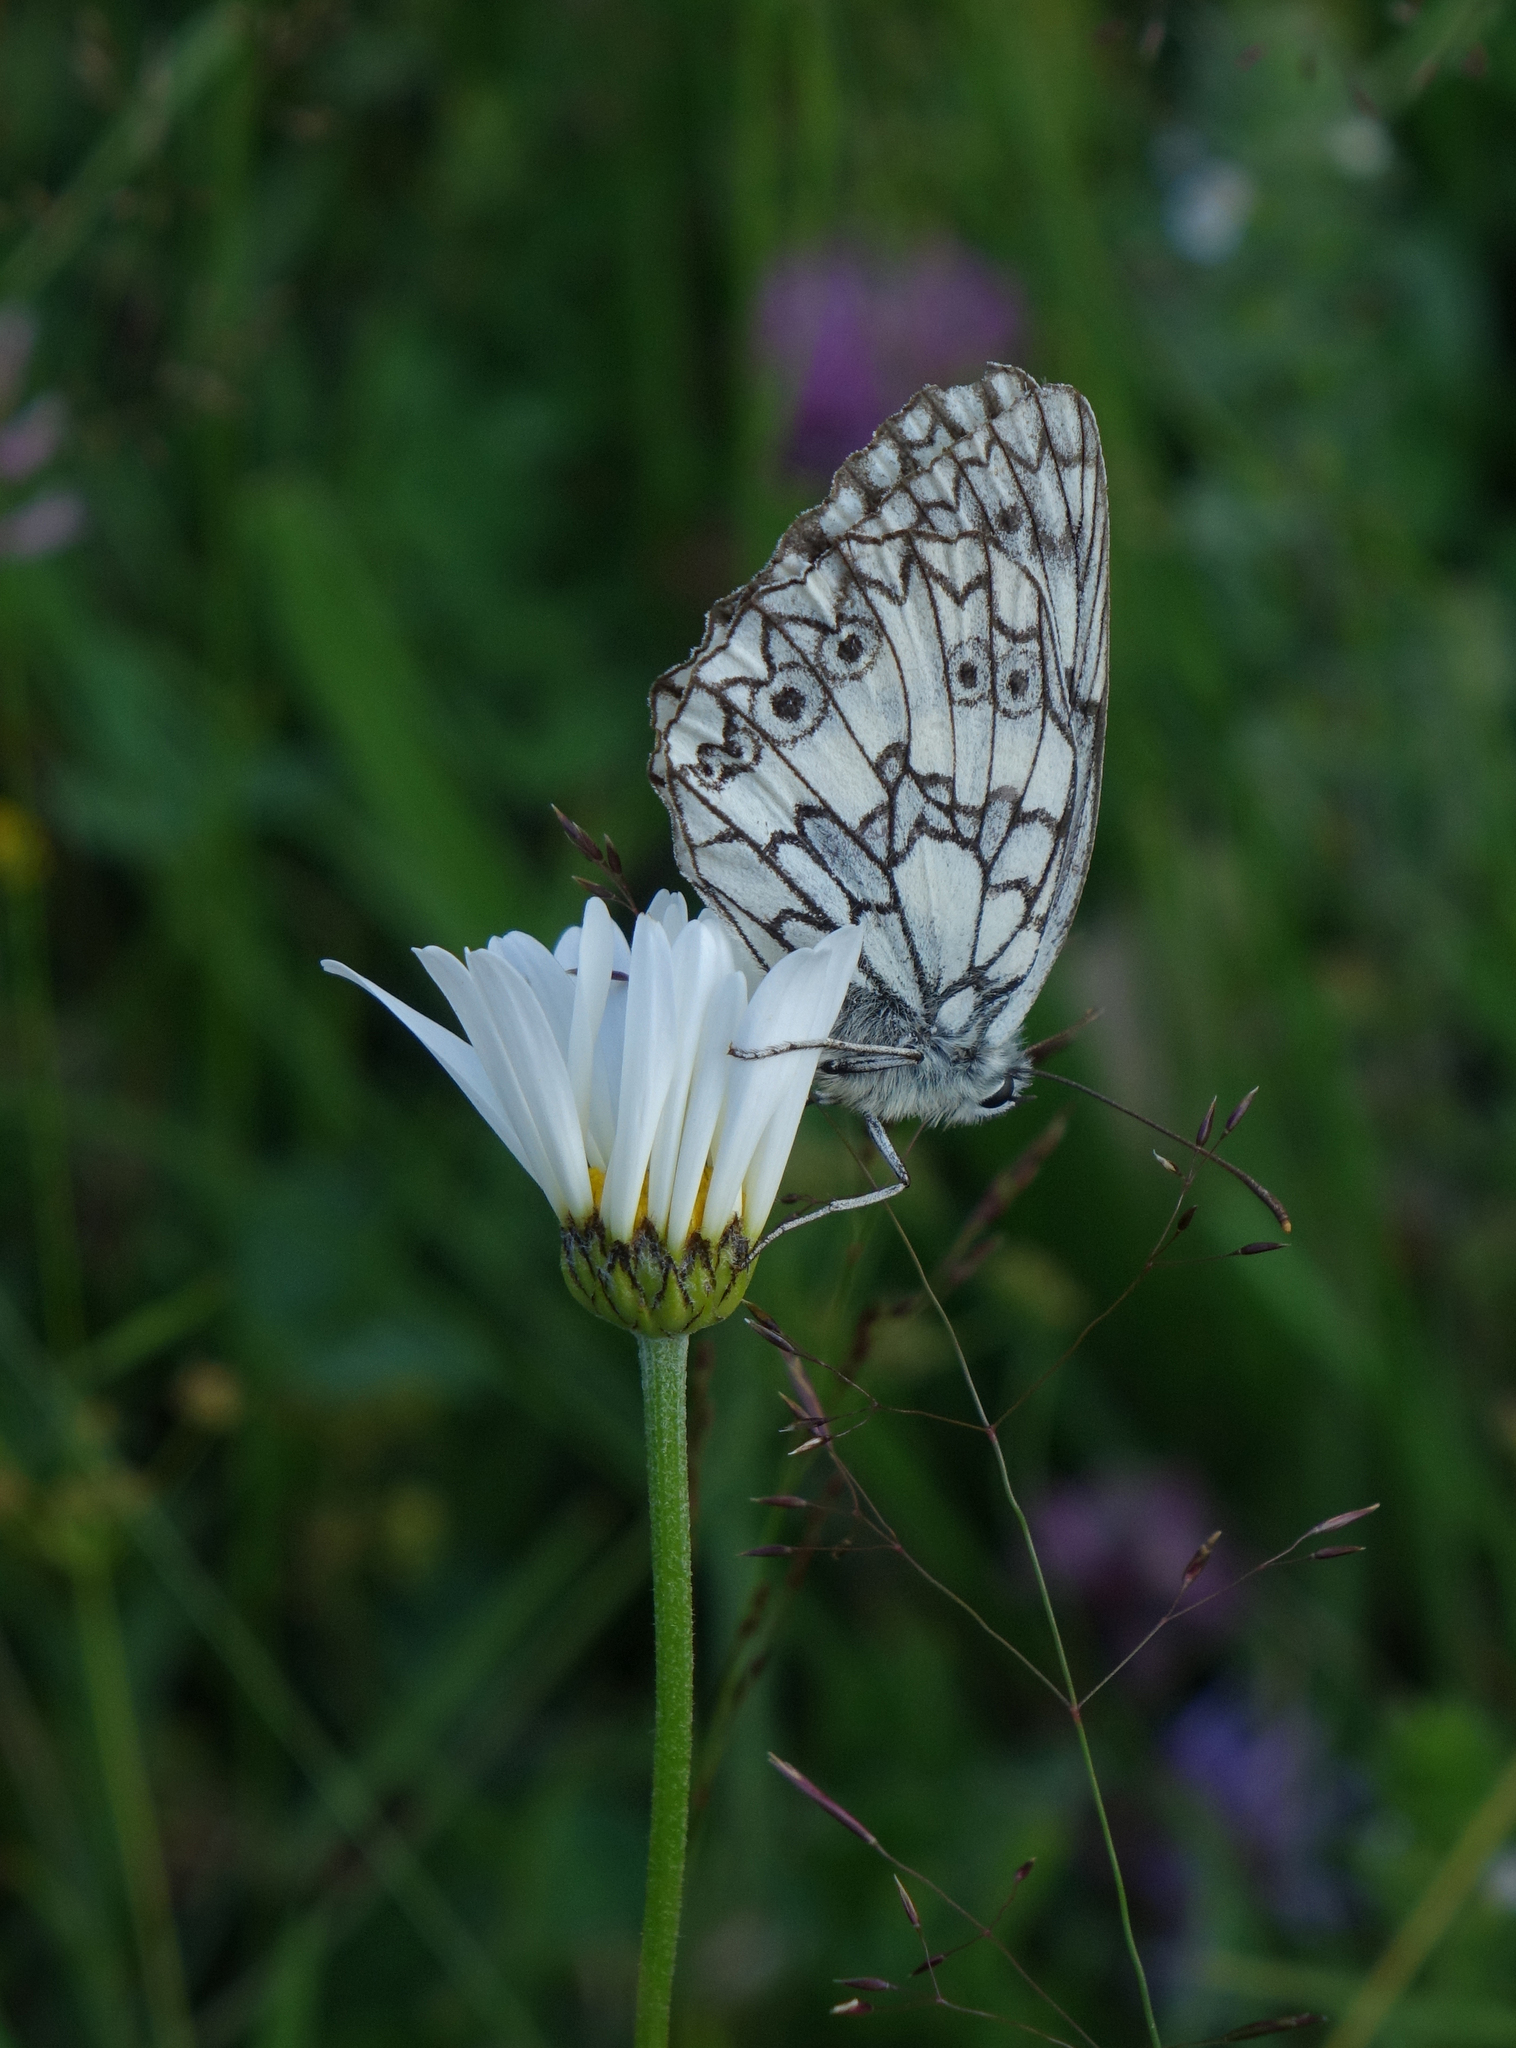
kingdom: Animalia
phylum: Arthropoda
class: Insecta
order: Lepidoptera
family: Nymphalidae
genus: Melanargia
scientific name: Melanargia japygia
